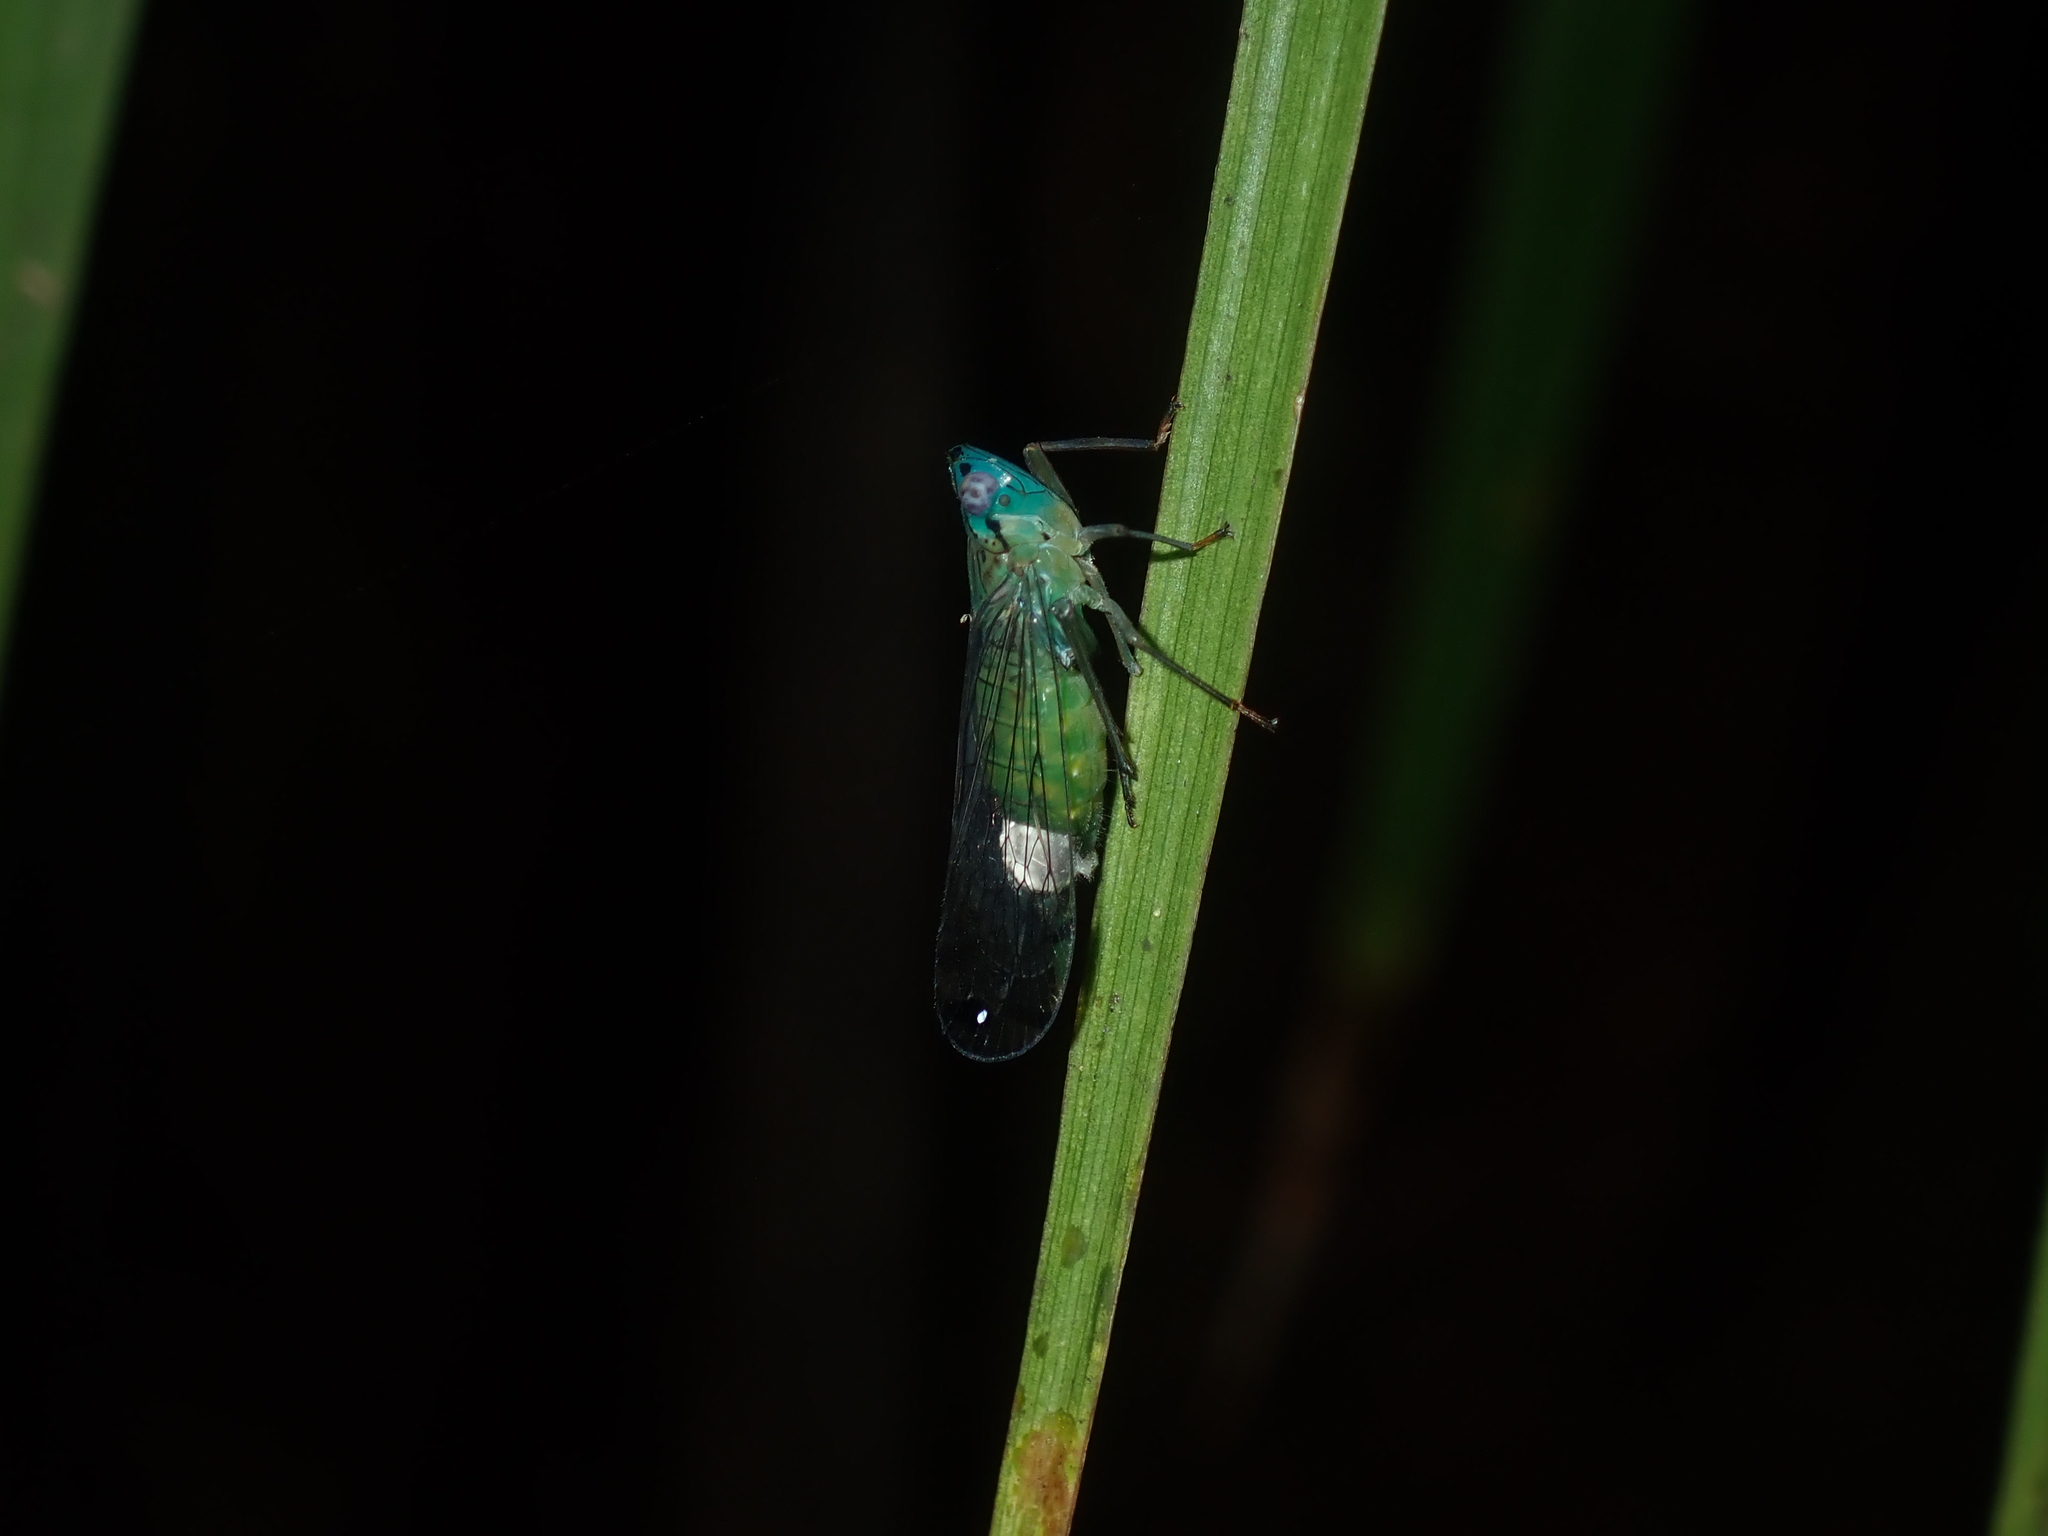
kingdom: Animalia
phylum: Arthropoda
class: Insecta
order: Hemiptera
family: Lophopidae
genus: Magia
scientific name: Magia subocellata
